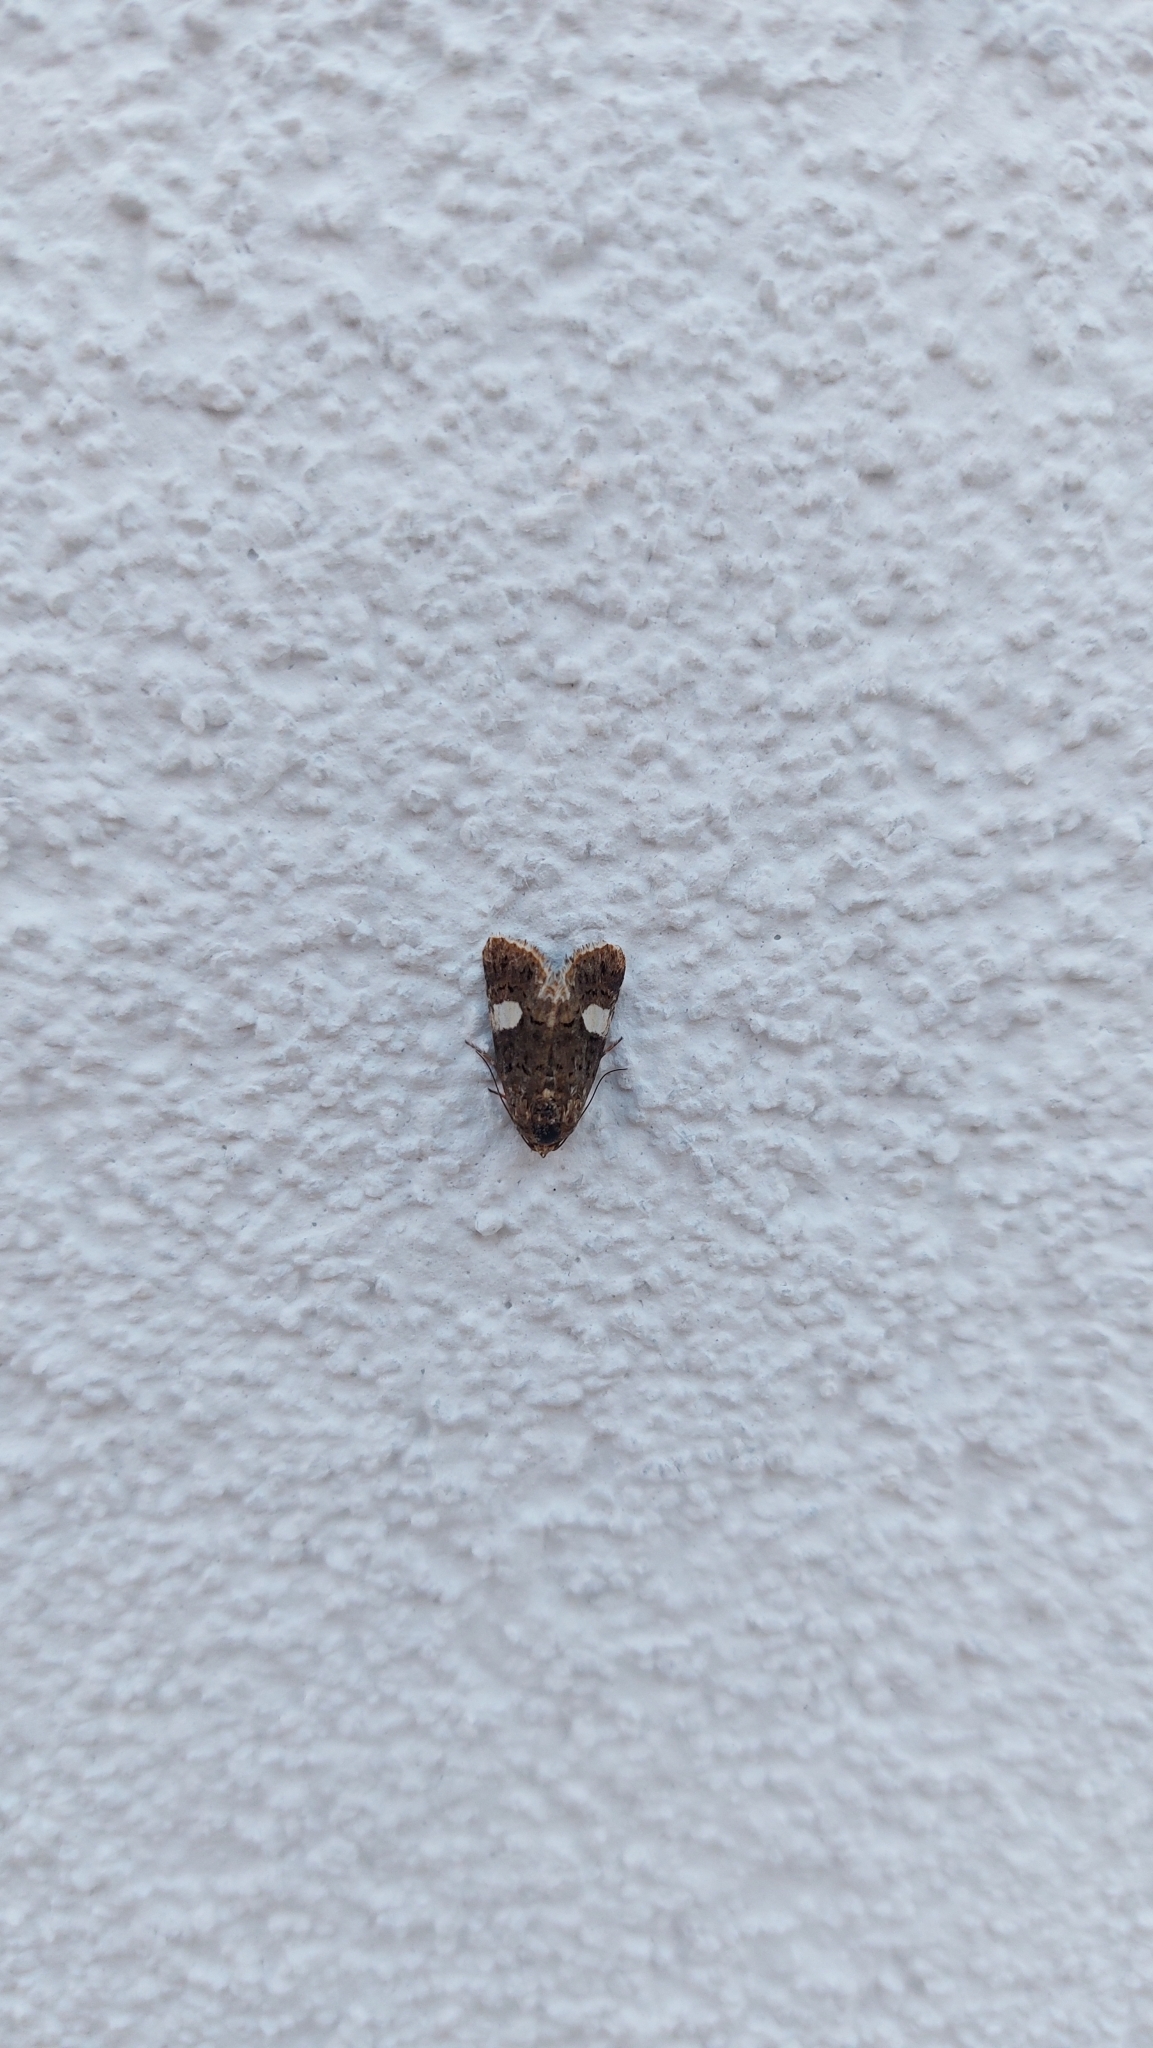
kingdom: Animalia
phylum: Arthropoda
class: Insecta
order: Lepidoptera
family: Erebidae
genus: Tyta
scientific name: Tyta luctuosa
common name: Four-spotted
